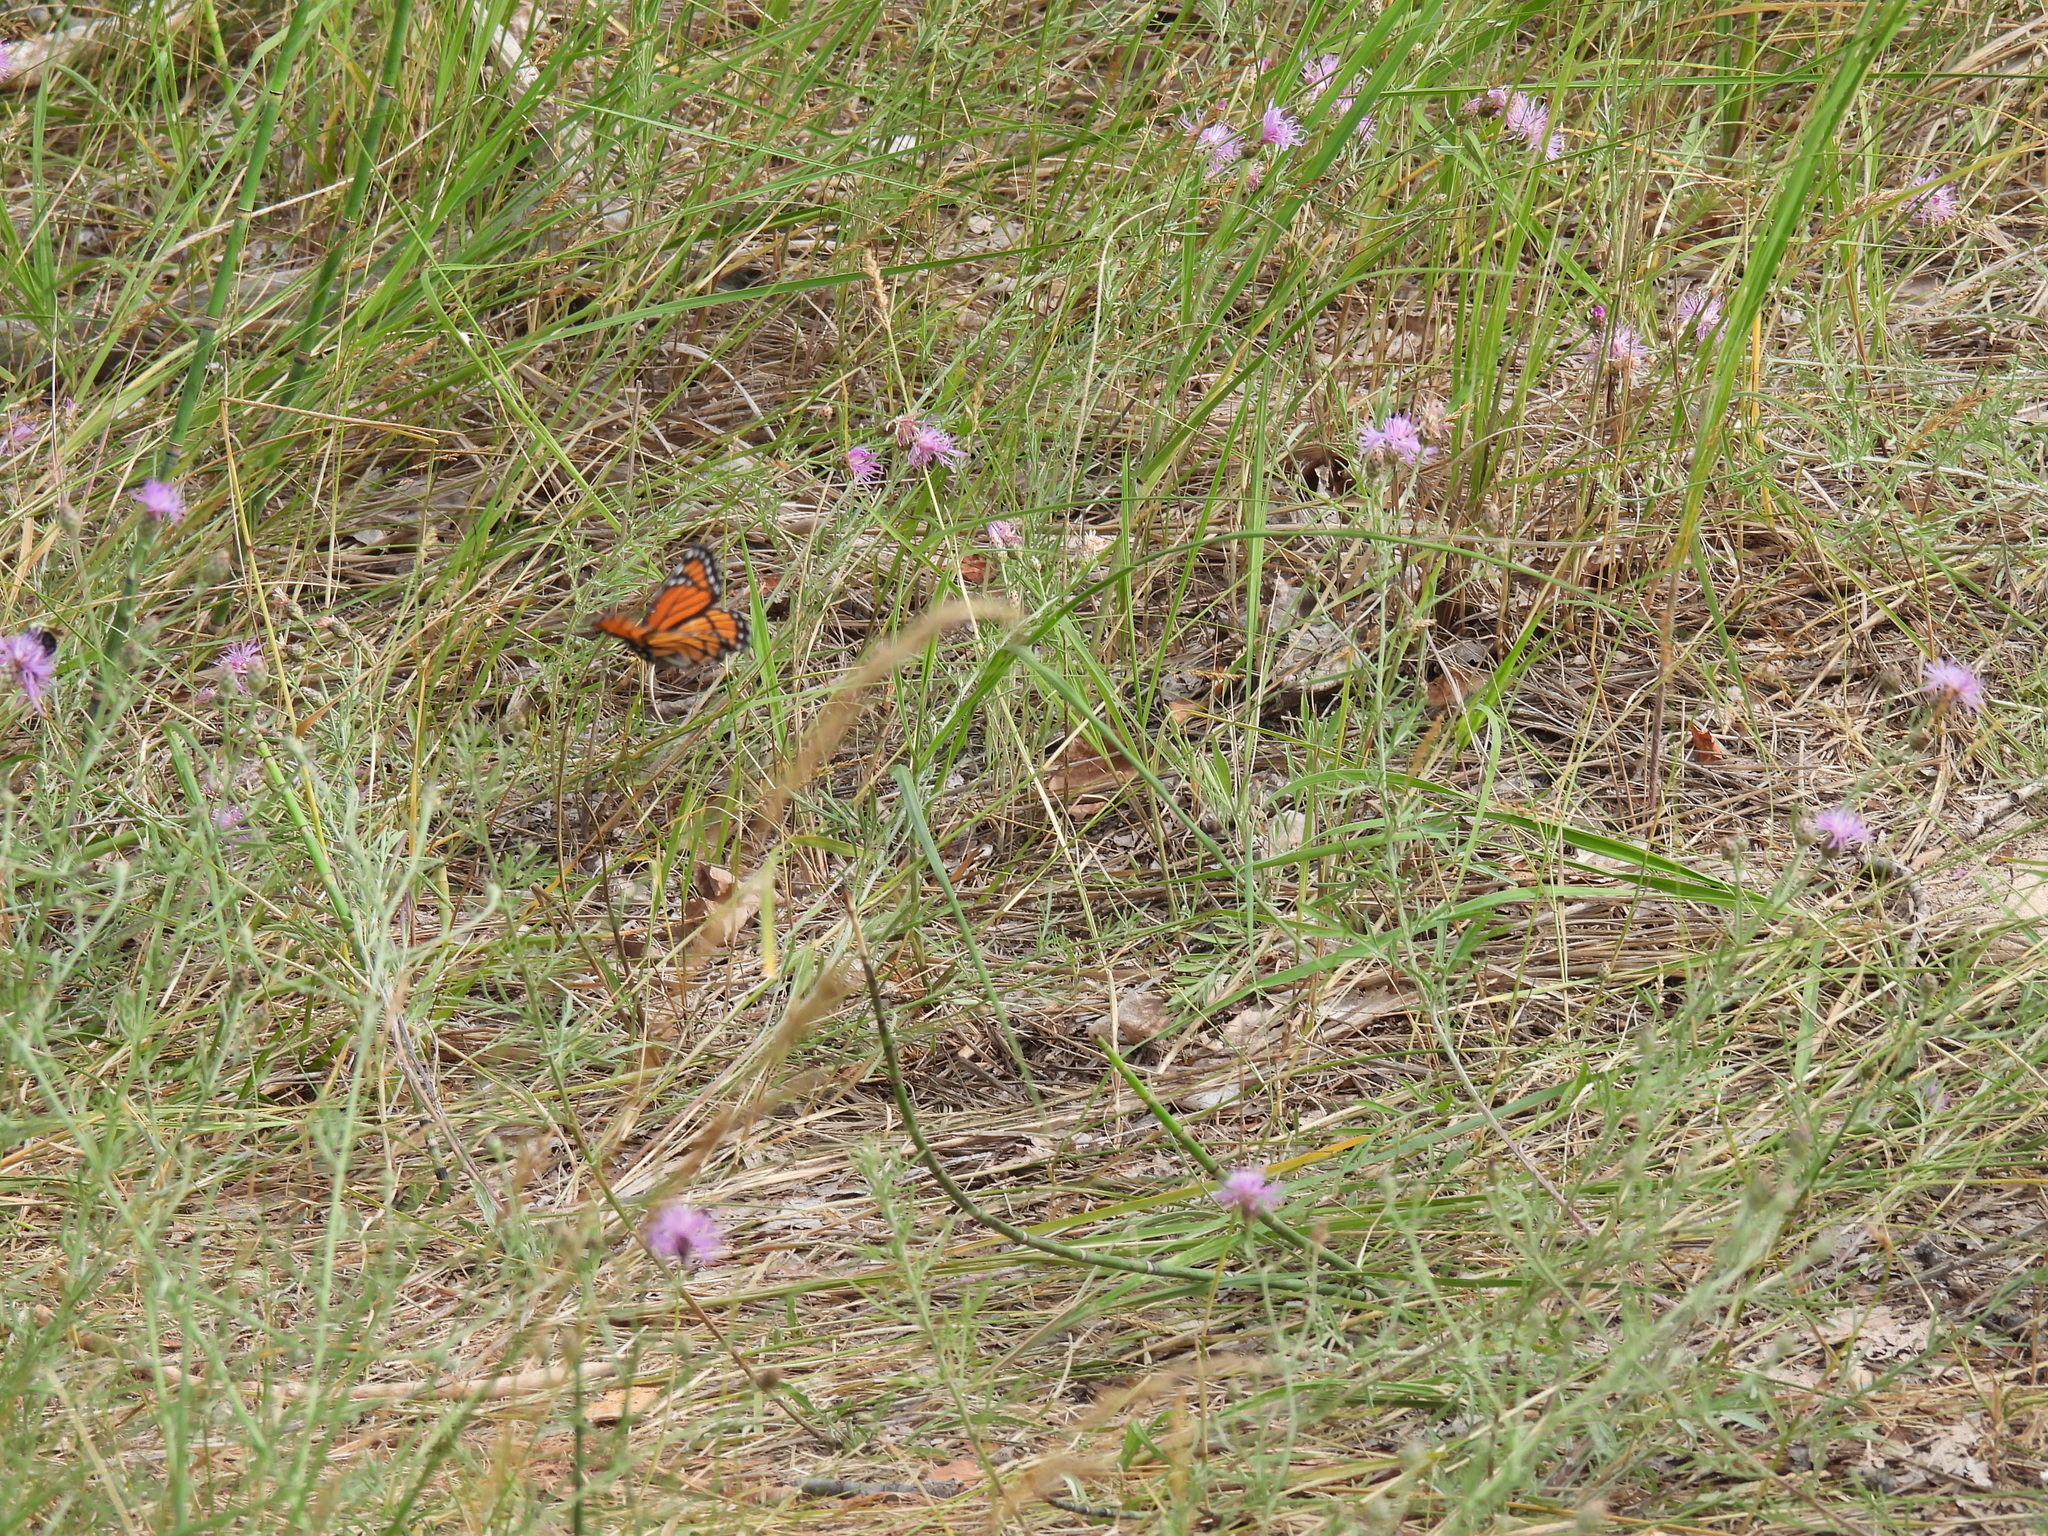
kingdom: Animalia
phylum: Arthropoda
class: Insecta
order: Lepidoptera
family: Nymphalidae
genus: Limenitis
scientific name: Limenitis archippus
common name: Viceroy
